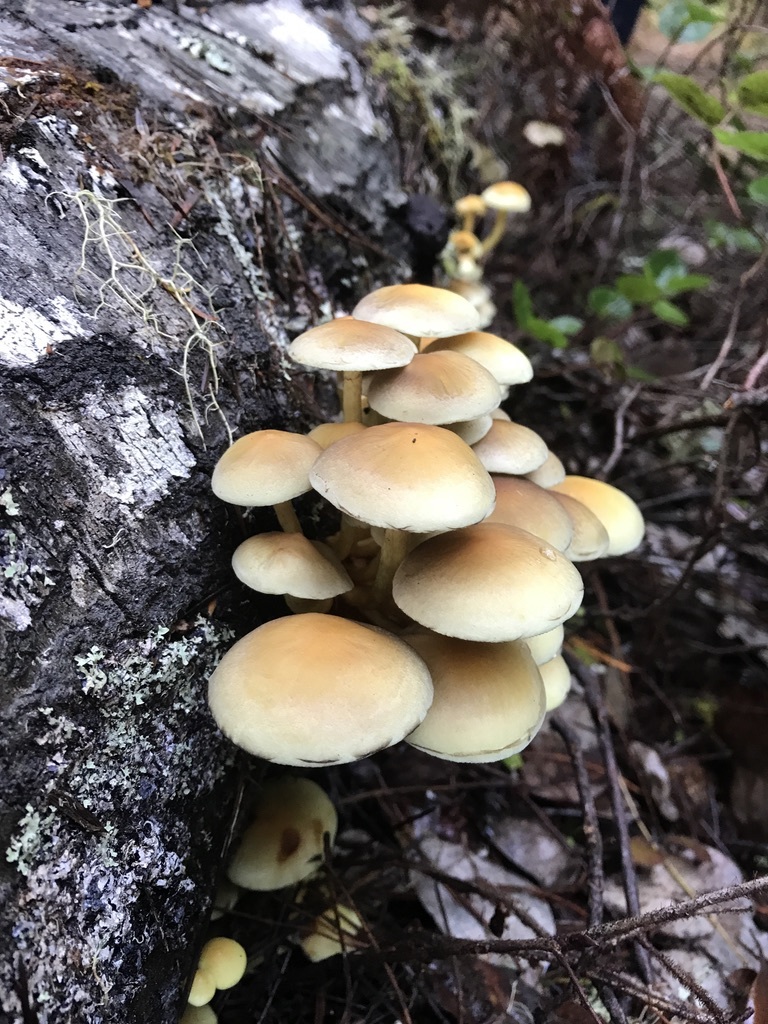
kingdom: Fungi
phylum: Basidiomycota
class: Agaricomycetes
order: Agaricales
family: Strophariaceae
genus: Hypholoma
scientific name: Hypholoma fasciculare
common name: Sulphur tuft
